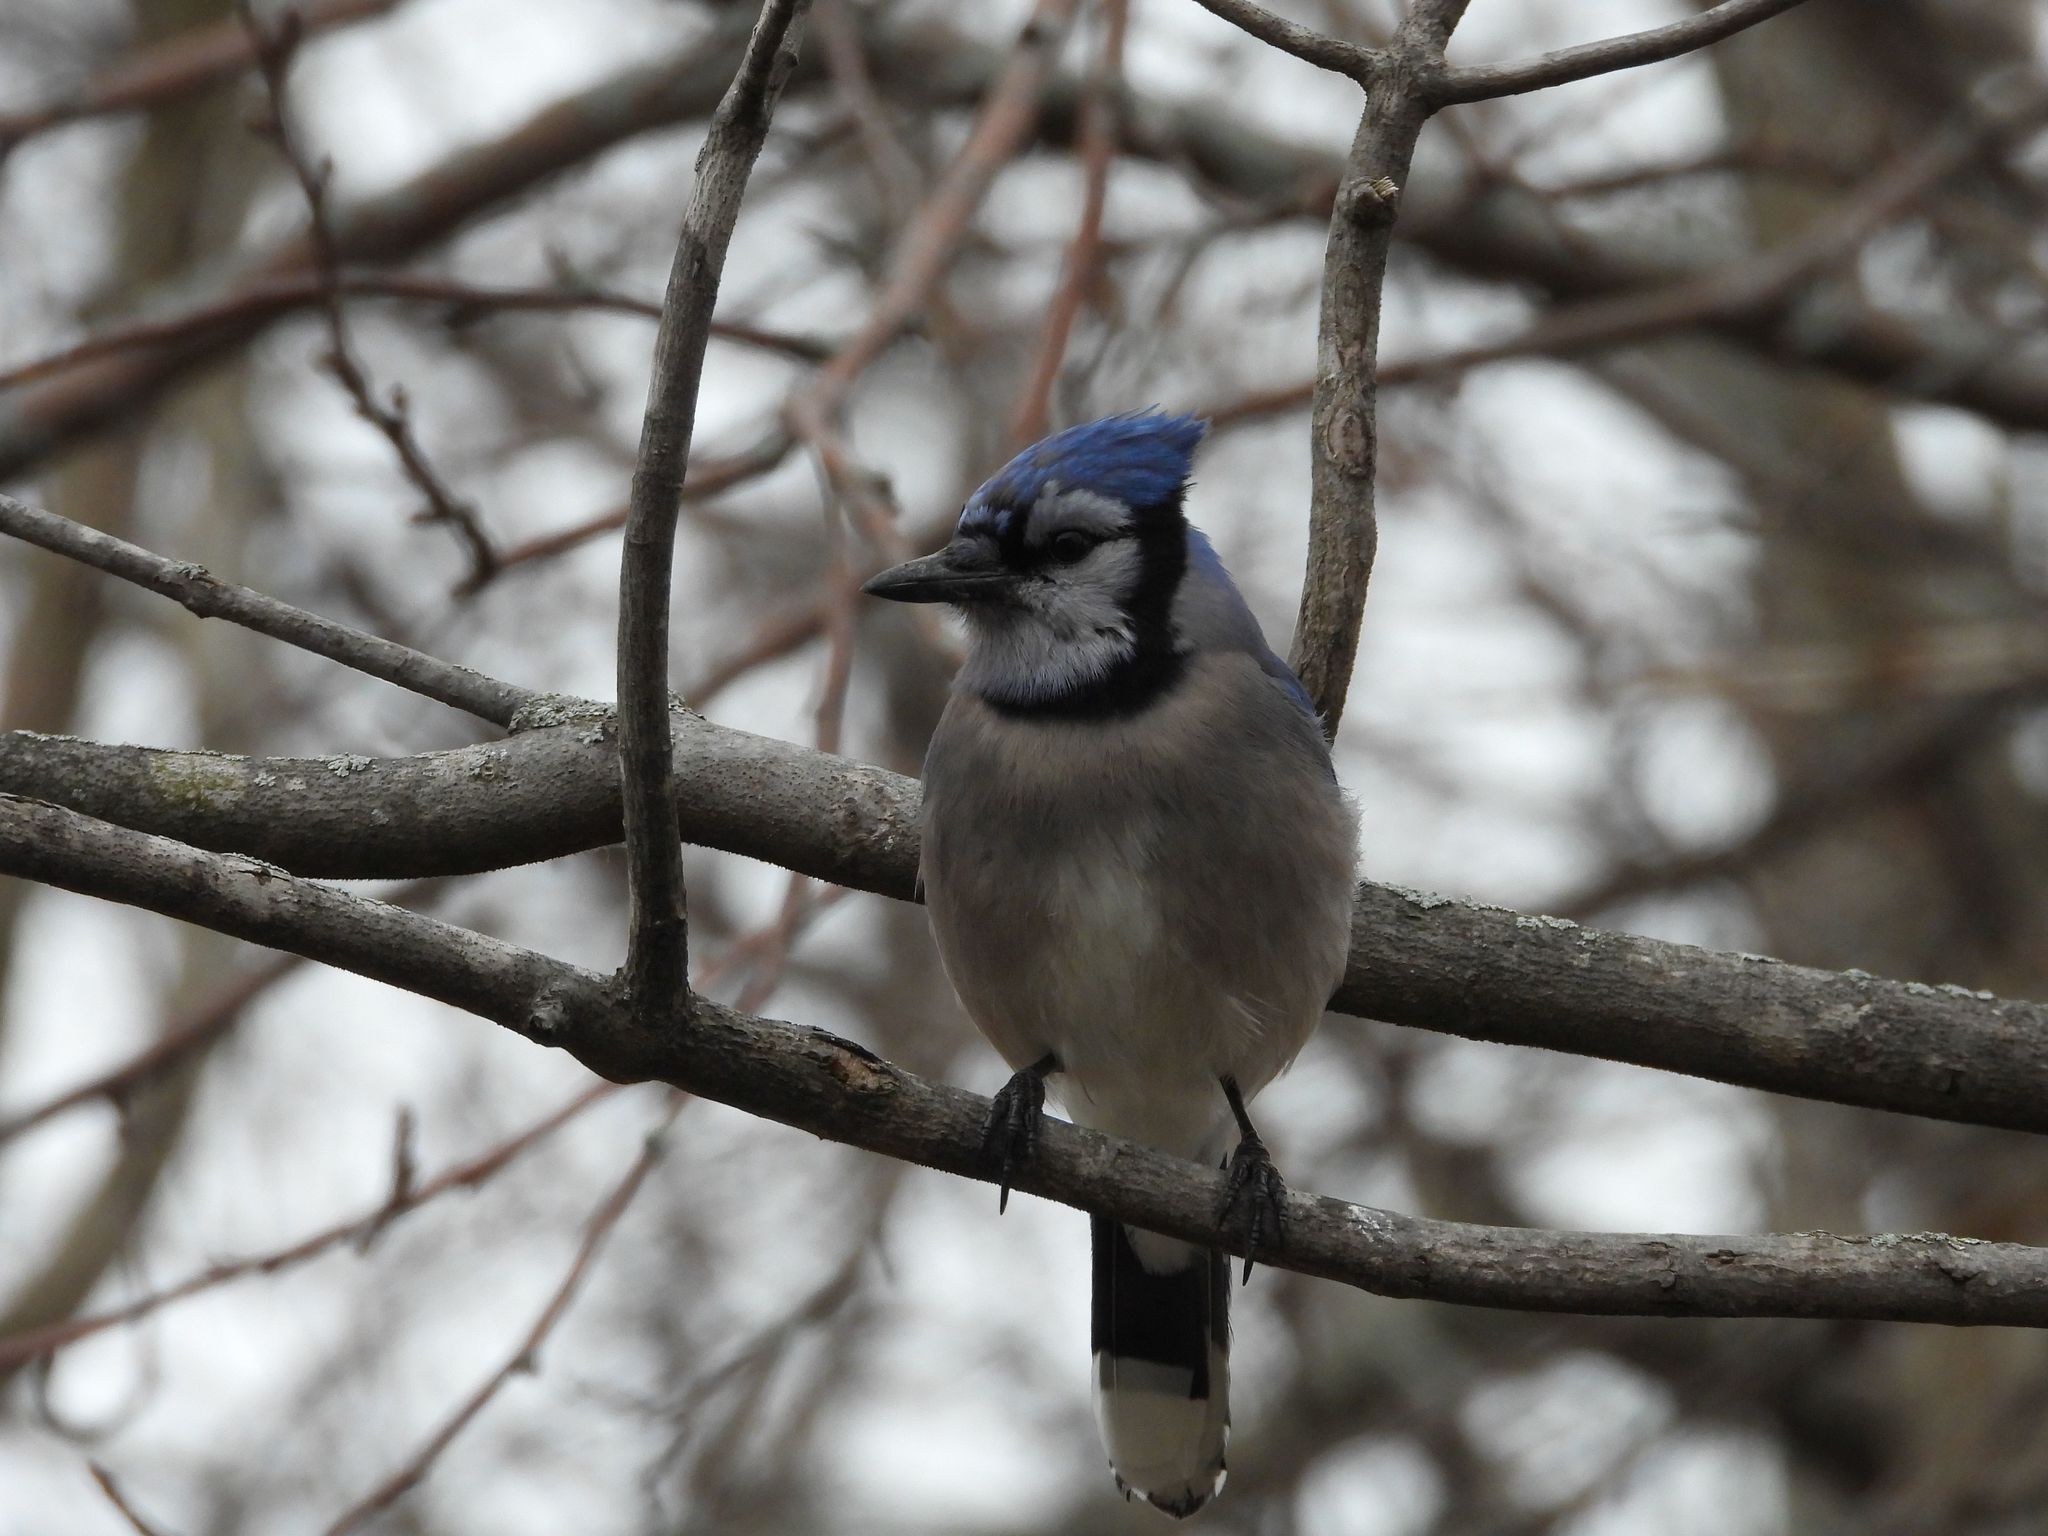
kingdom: Animalia
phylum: Chordata
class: Aves
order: Passeriformes
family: Corvidae
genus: Cyanocitta
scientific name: Cyanocitta cristata
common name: Blue jay
